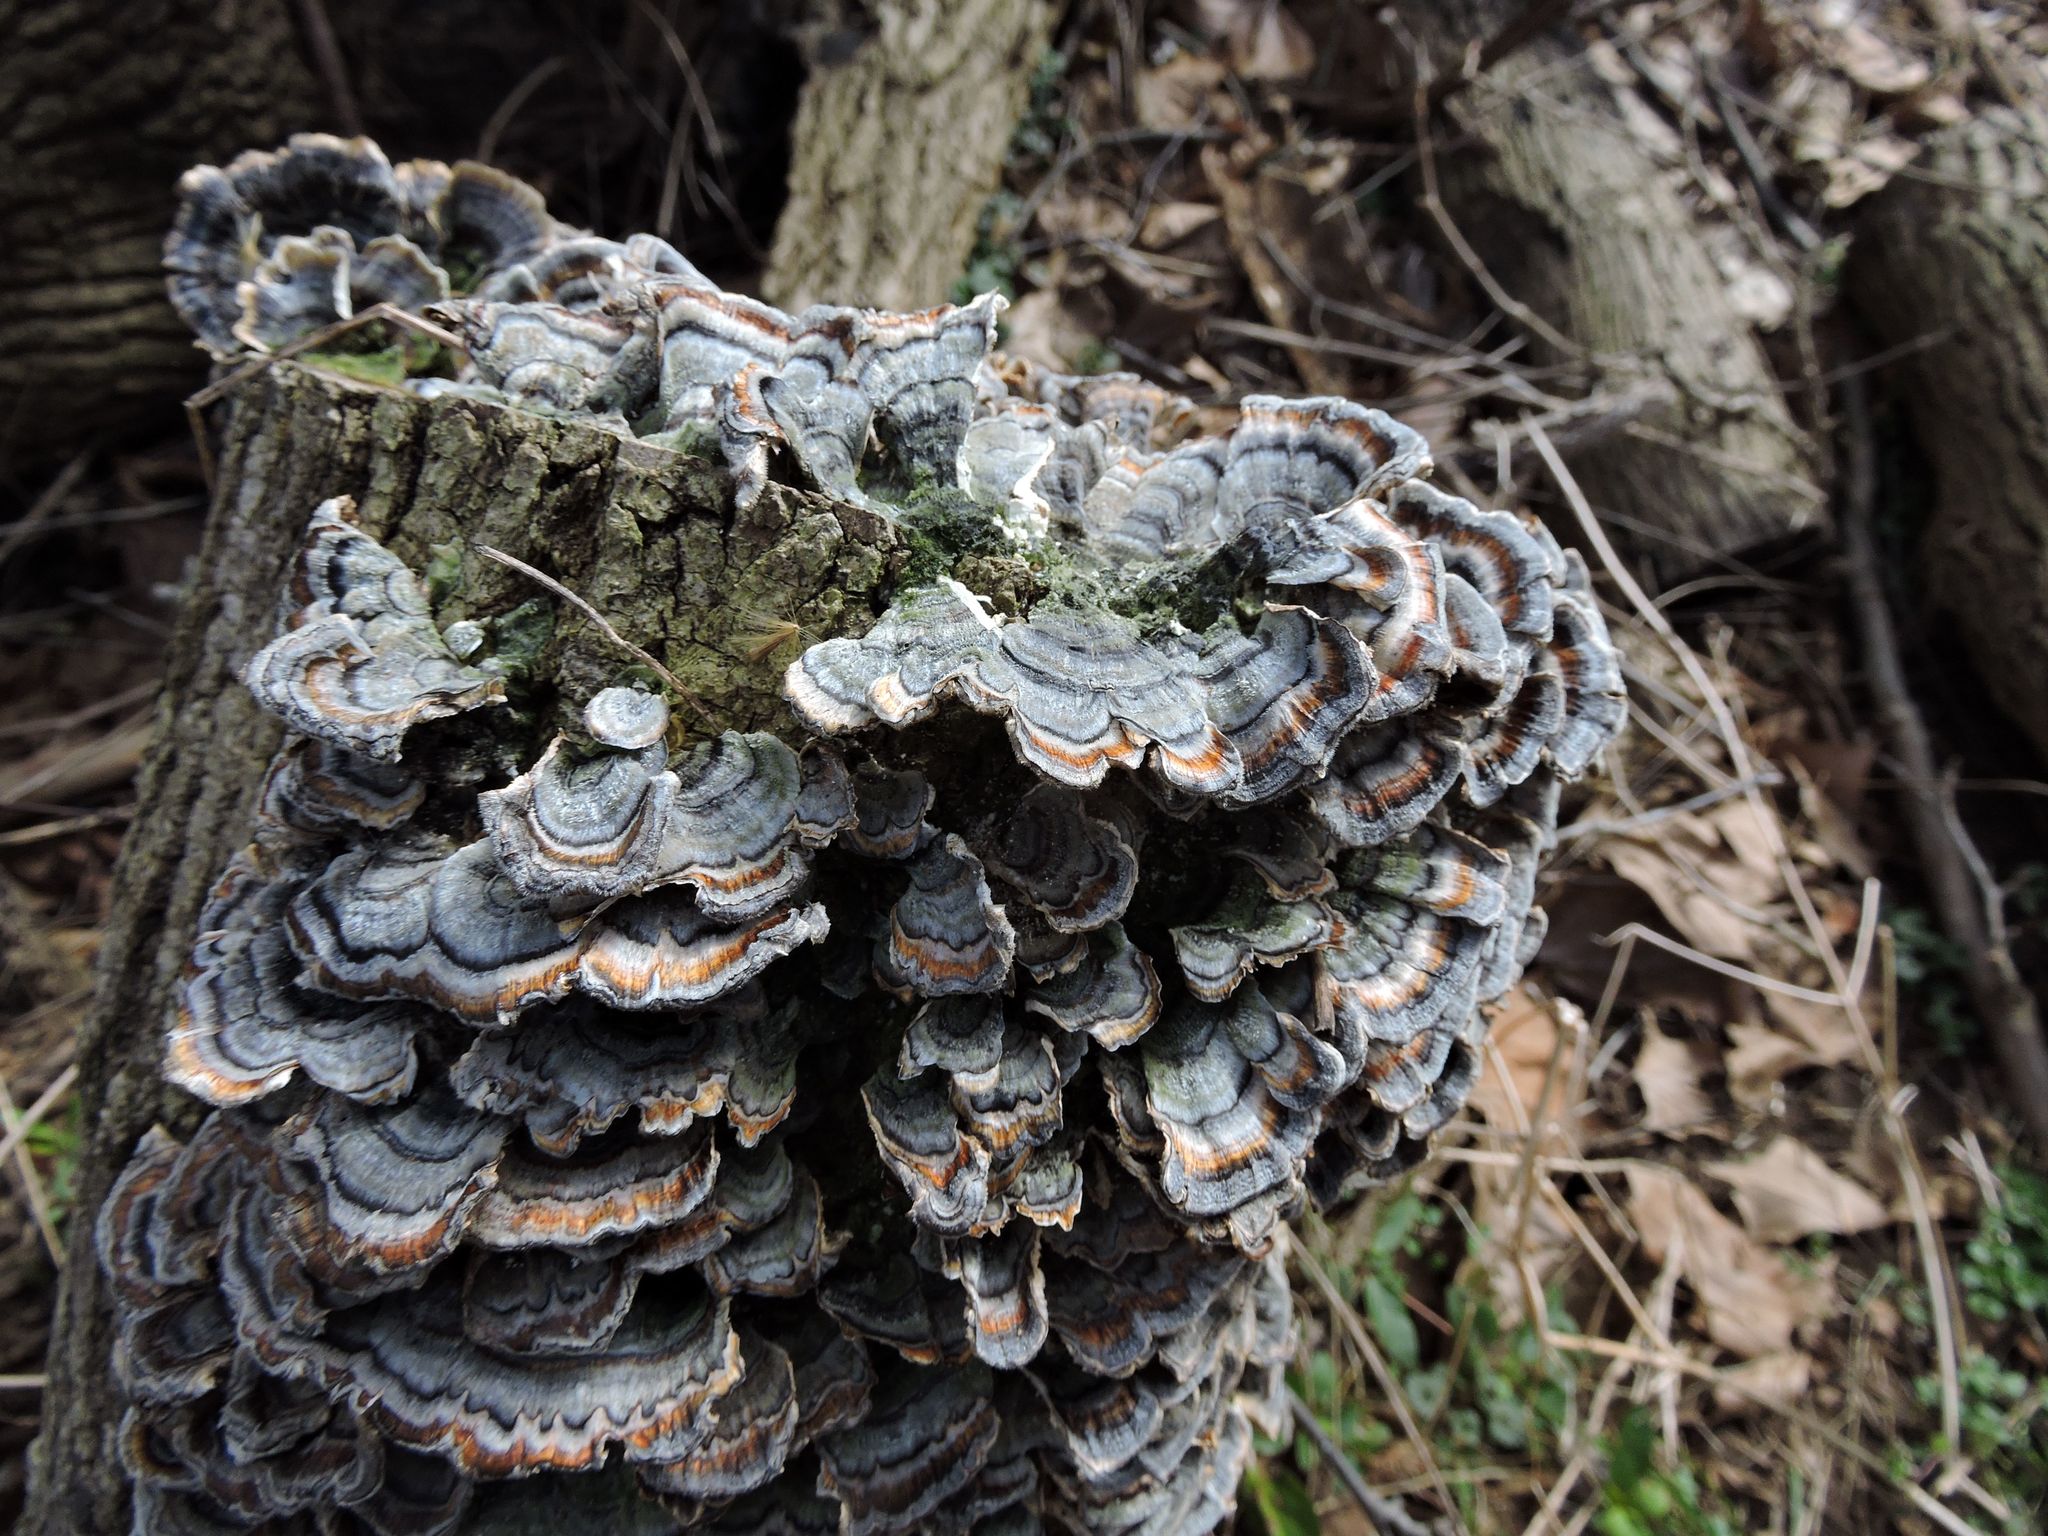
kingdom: Fungi
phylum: Basidiomycota
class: Agaricomycetes
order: Polyporales
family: Polyporaceae
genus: Trametes
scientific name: Trametes versicolor
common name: Turkeytail
